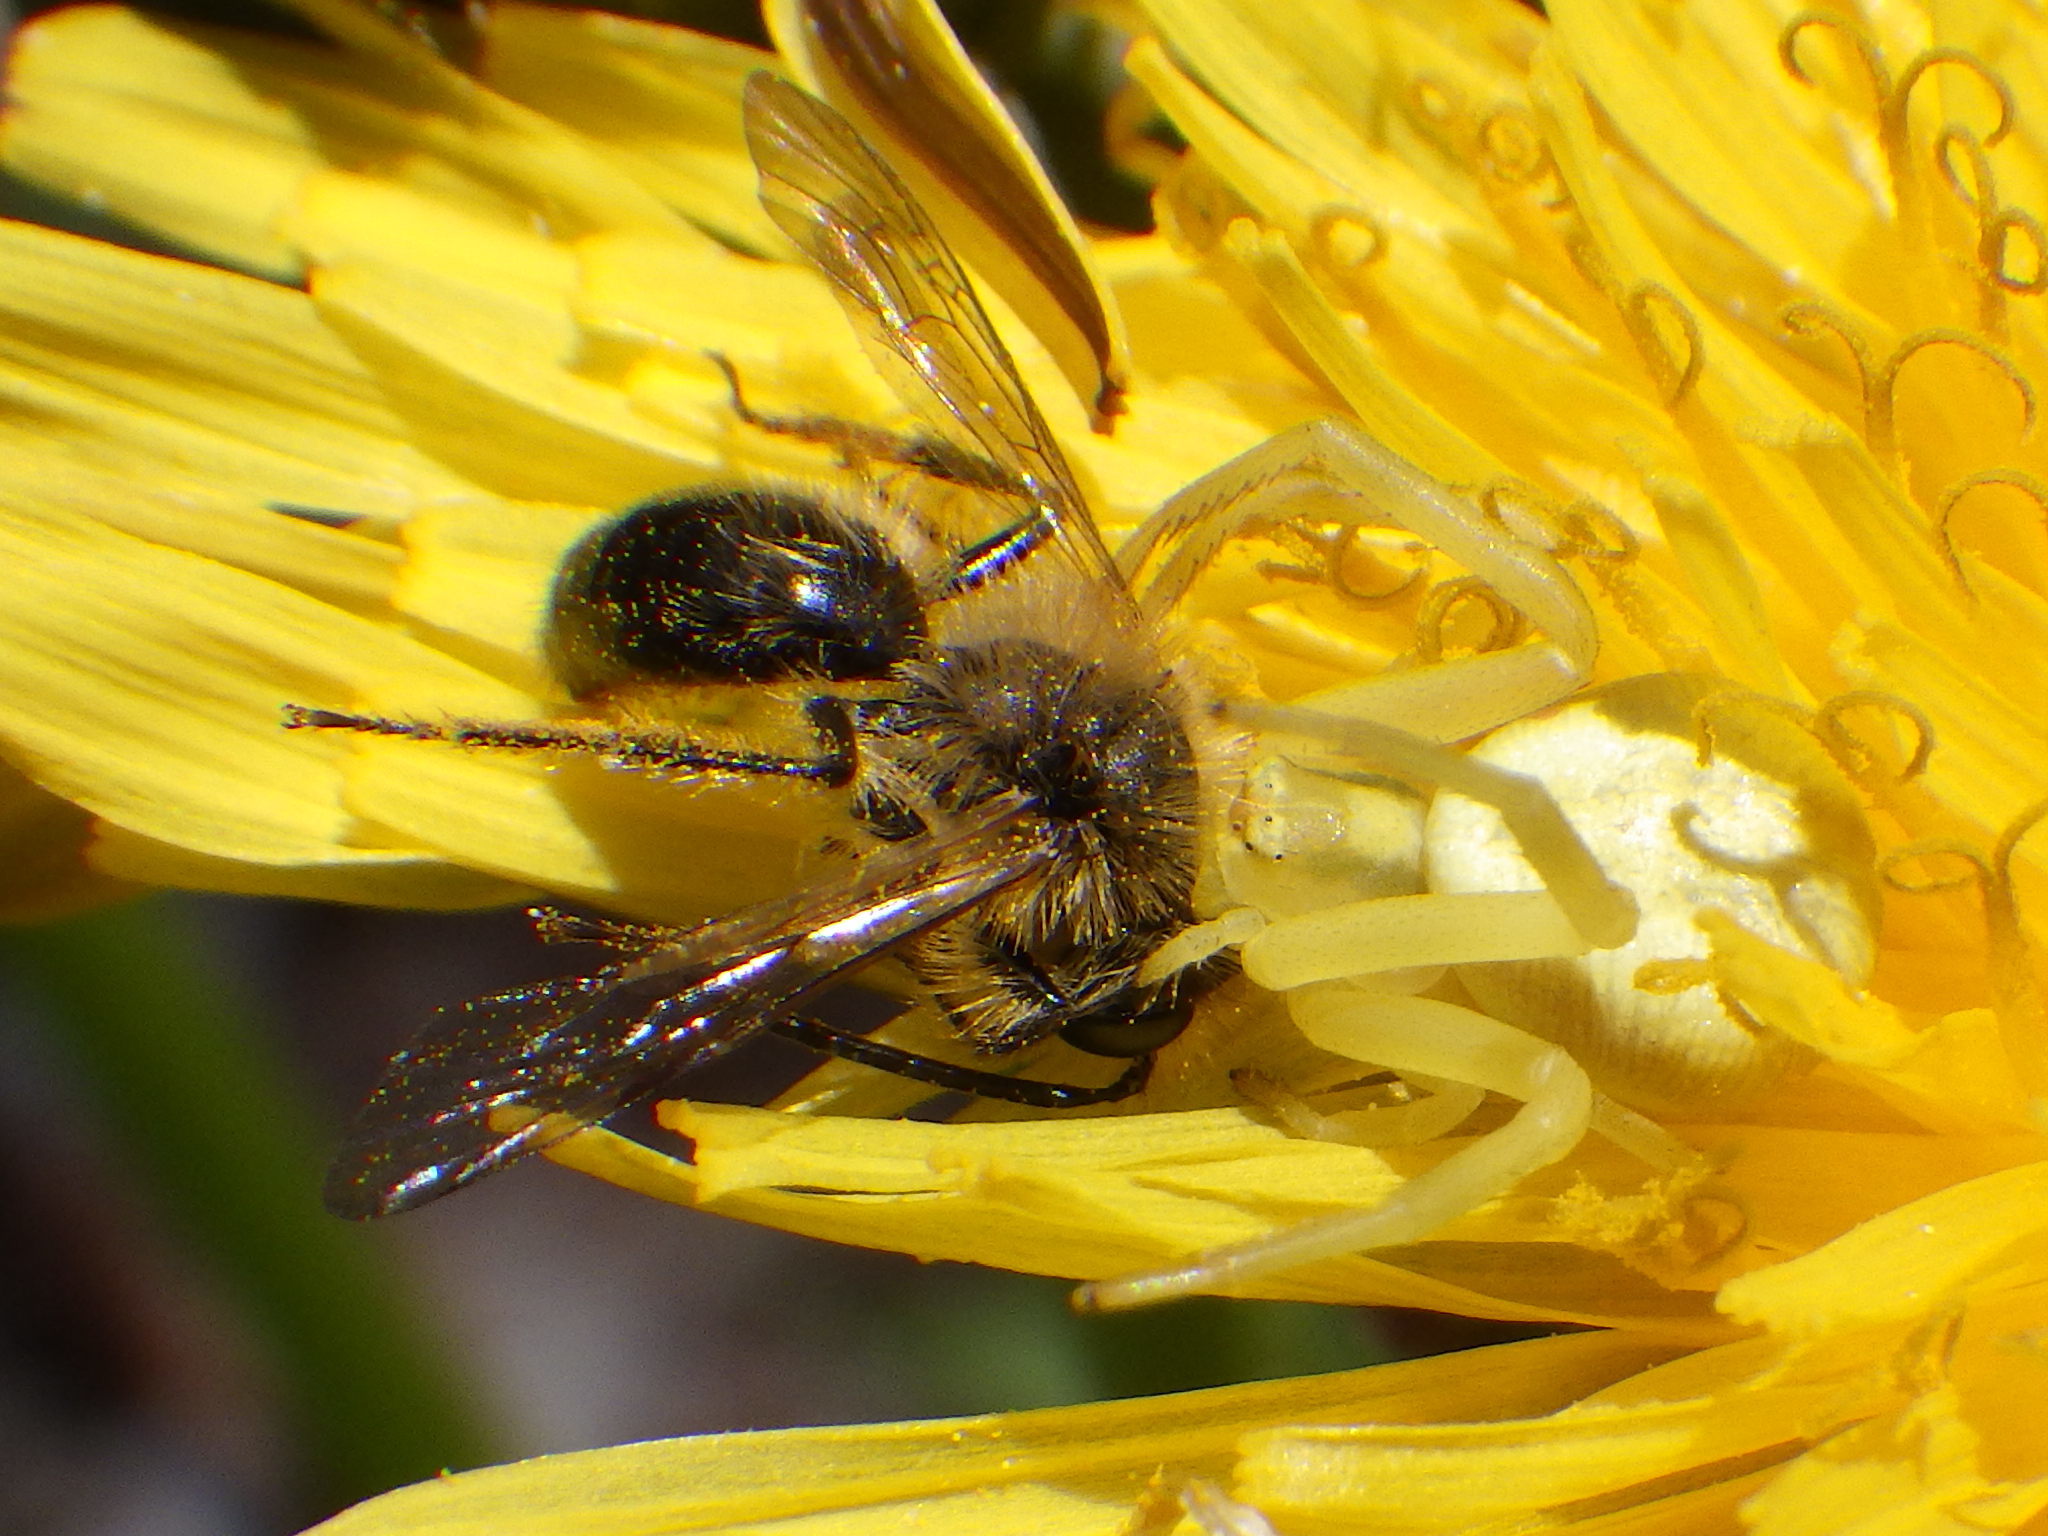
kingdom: Animalia
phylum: Arthropoda
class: Arachnida
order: Araneae
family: Thomisidae
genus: Misumena
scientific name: Misumena vatia
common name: Goldenrod crab spider
